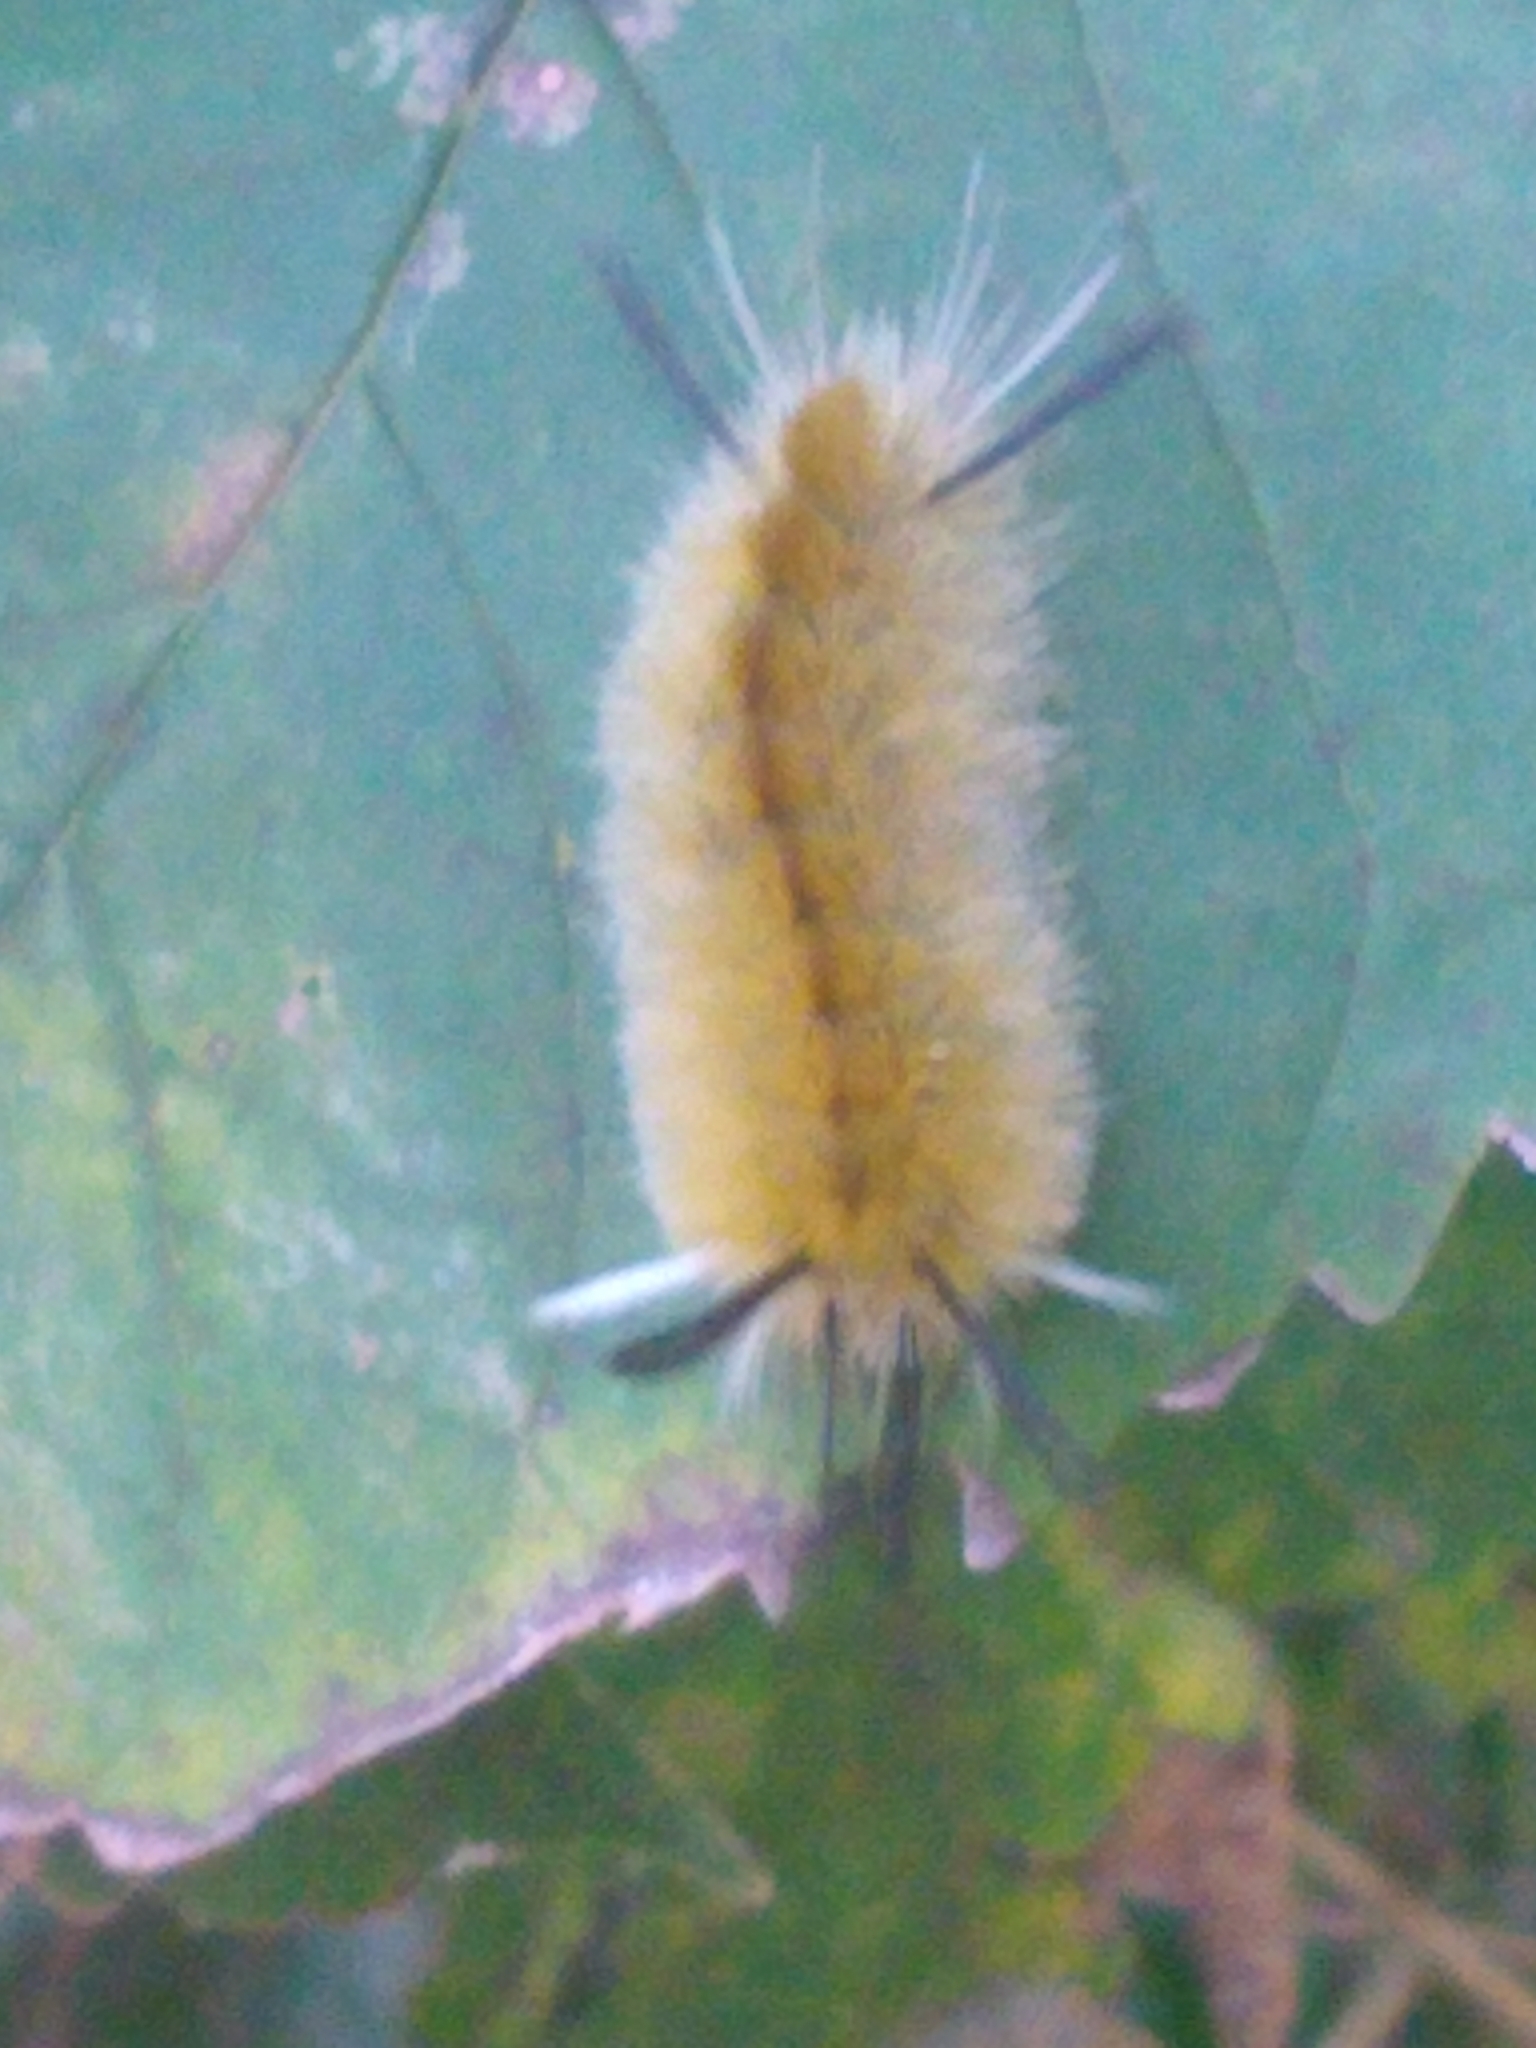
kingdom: Animalia
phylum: Arthropoda
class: Insecta
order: Lepidoptera
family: Erebidae
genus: Halysidota
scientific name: Halysidota tessellaris
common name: Banded tussock moth
